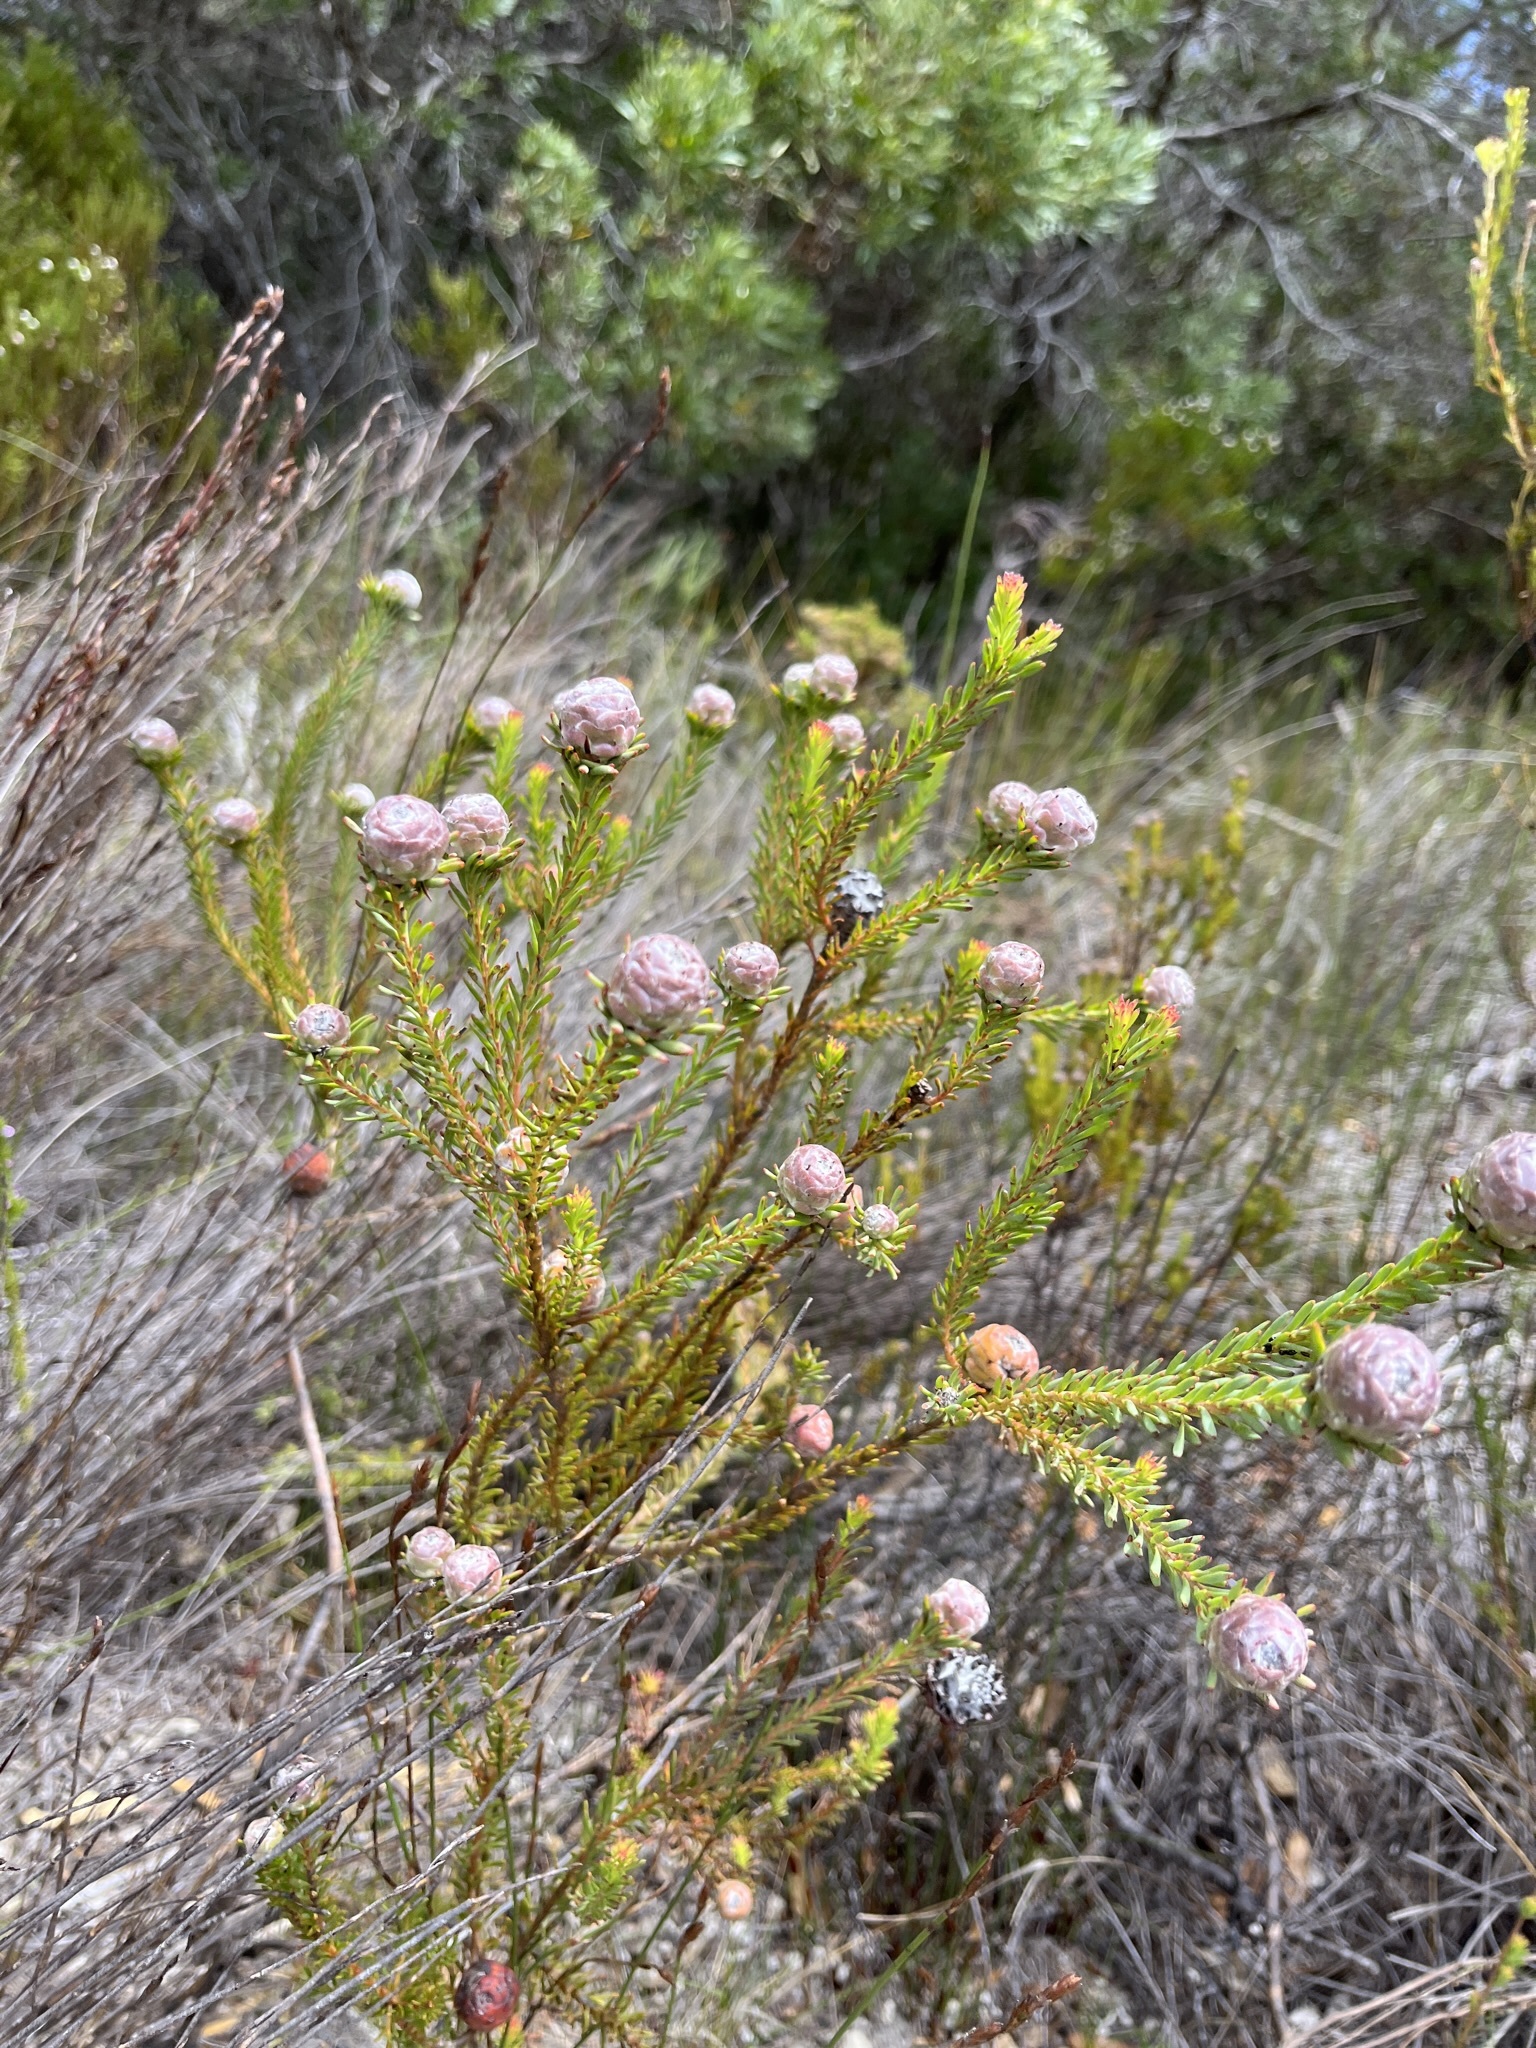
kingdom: Plantae
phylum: Tracheophyta
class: Magnoliopsida
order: Proteales
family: Proteaceae
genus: Leucadendron
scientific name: Leucadendron linifolium
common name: Line-leaf conebush
